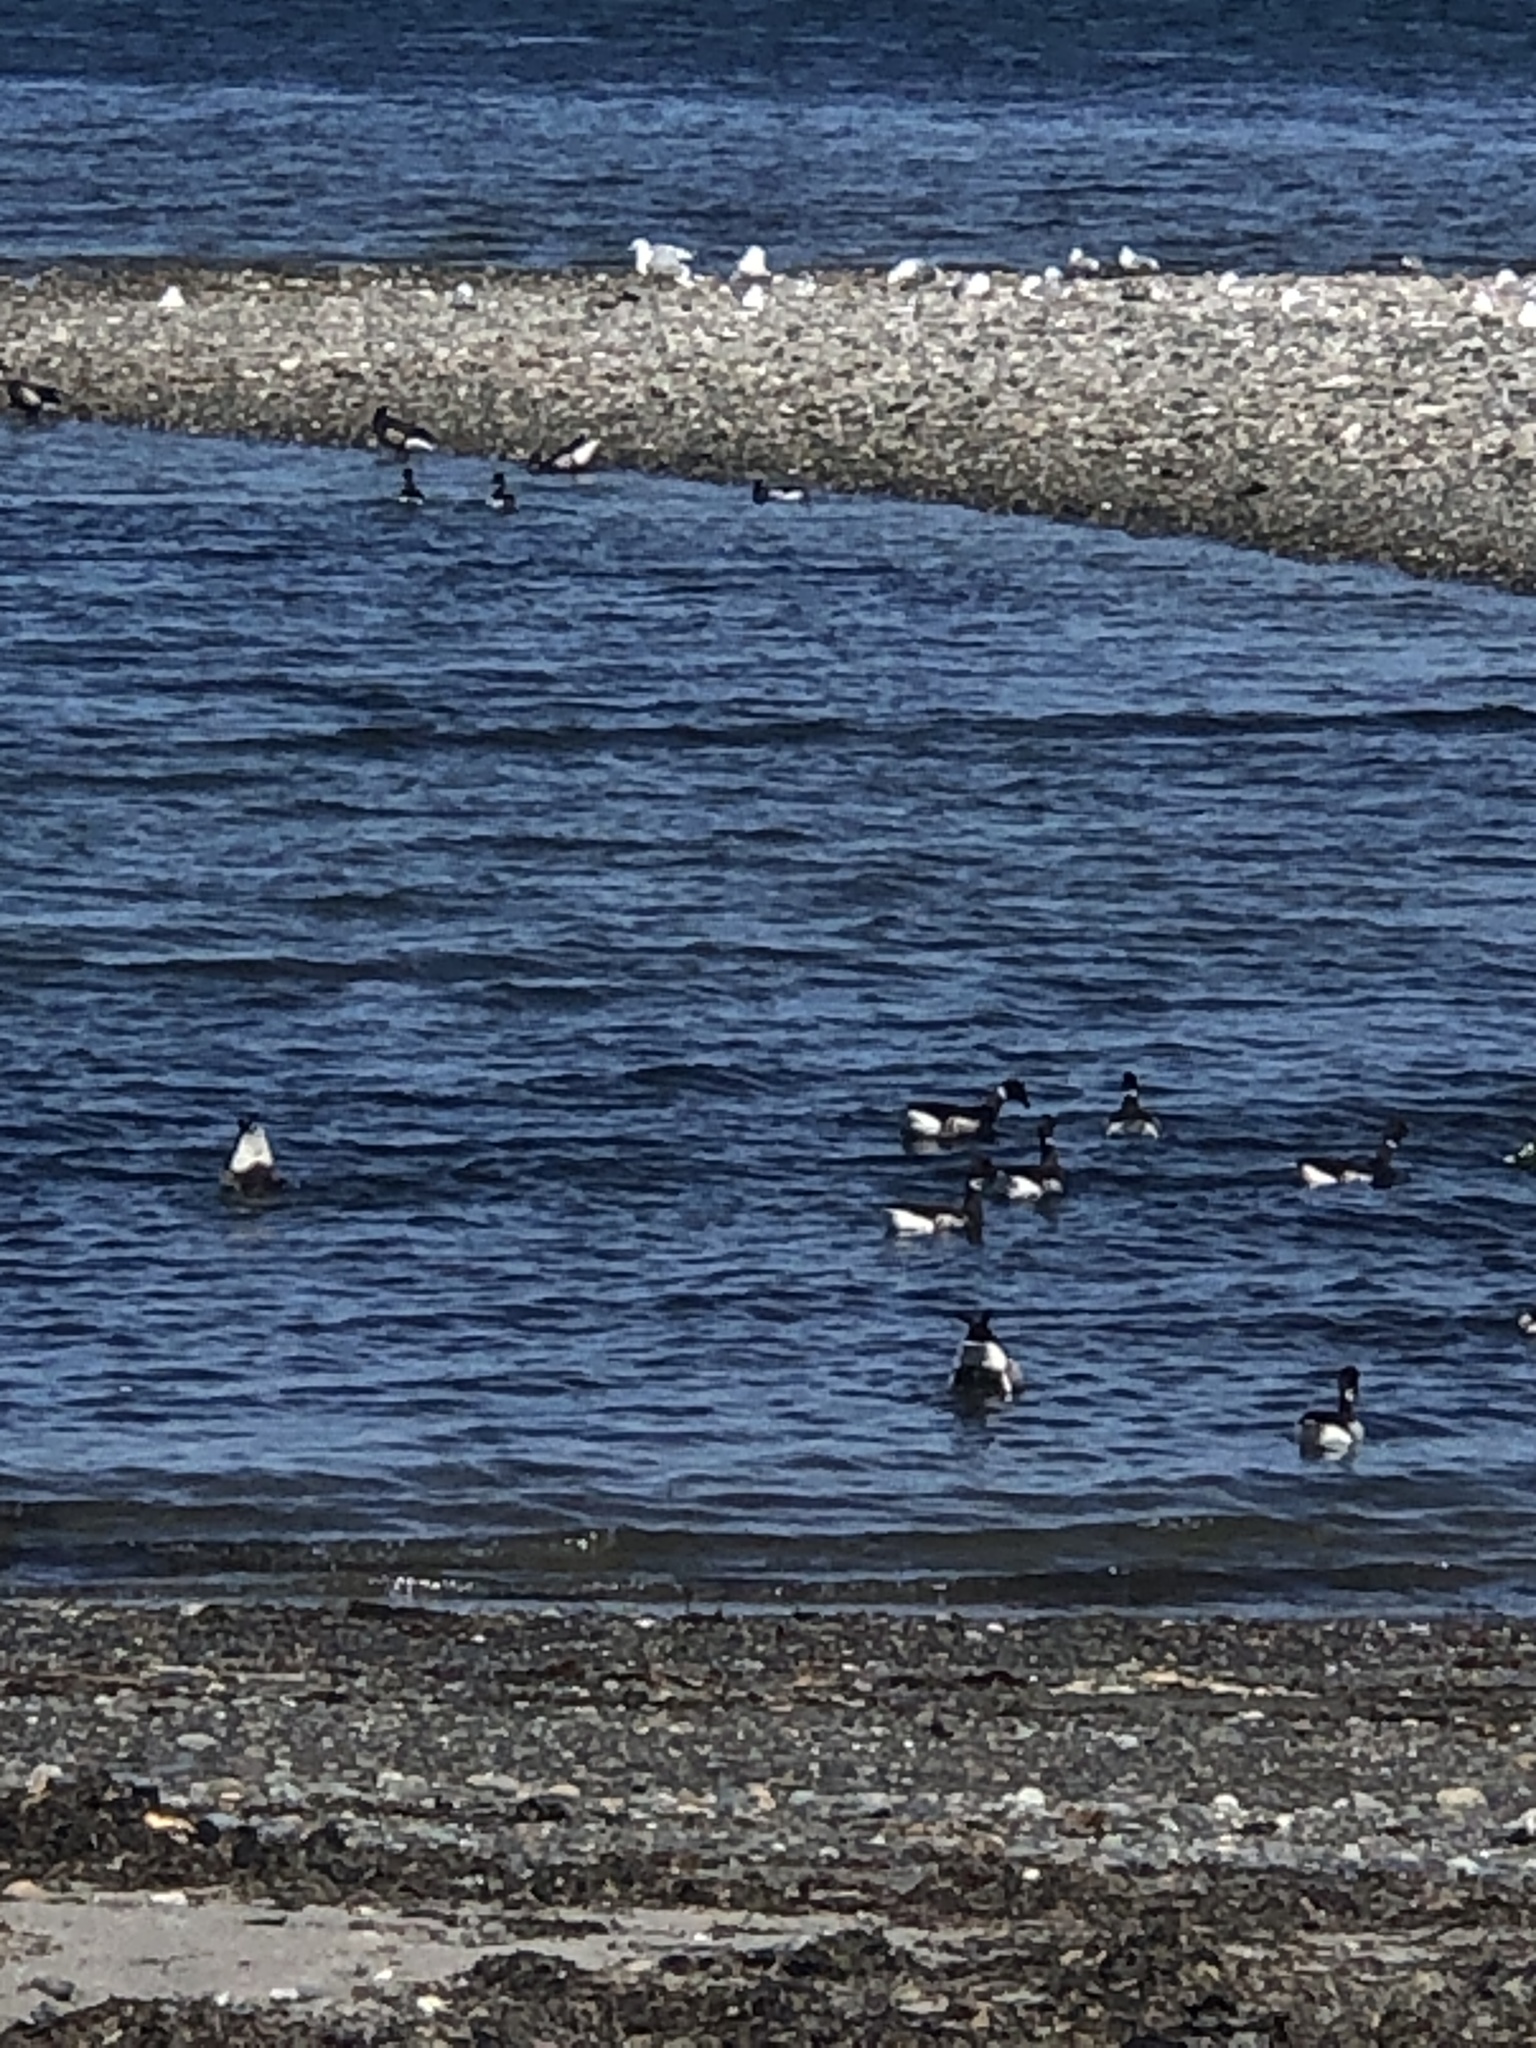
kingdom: Animalia
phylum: Chordata
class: Aves
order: Anseriformes
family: Anatidae
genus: Branta
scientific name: Branta bernicla
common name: Brant goose
